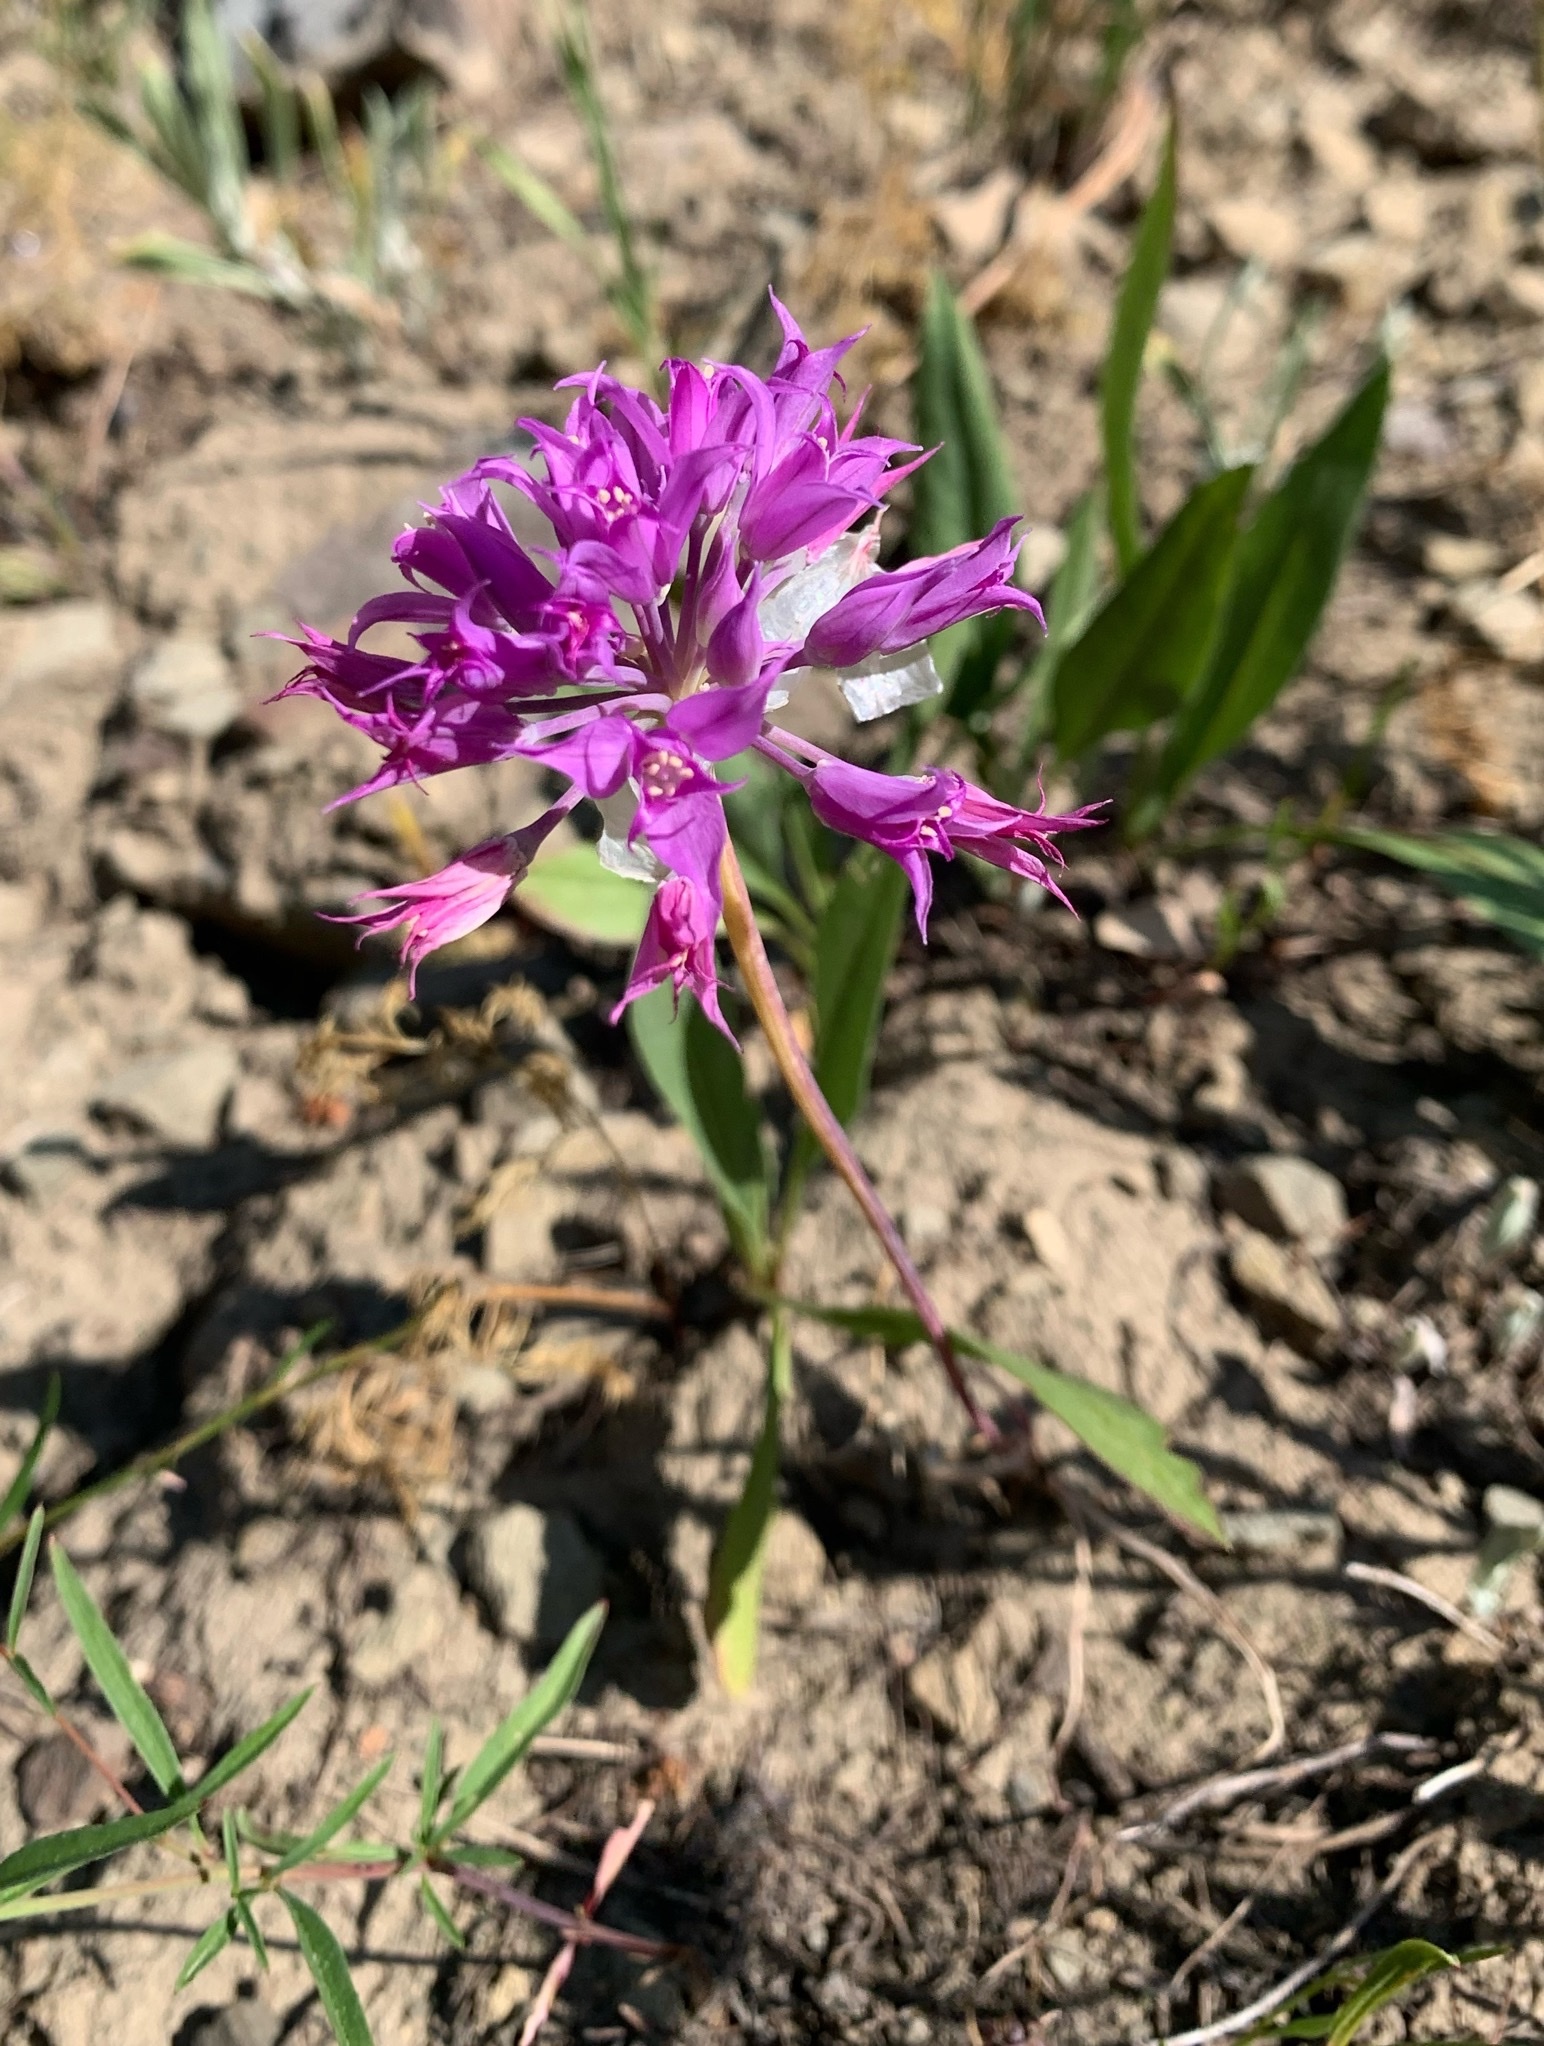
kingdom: Plantae
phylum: Tracheophyta
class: Liliopsida
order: Asparagales
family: Amaryllidaceae
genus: Allium
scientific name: Allium acuminatum
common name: Hooker's onion
